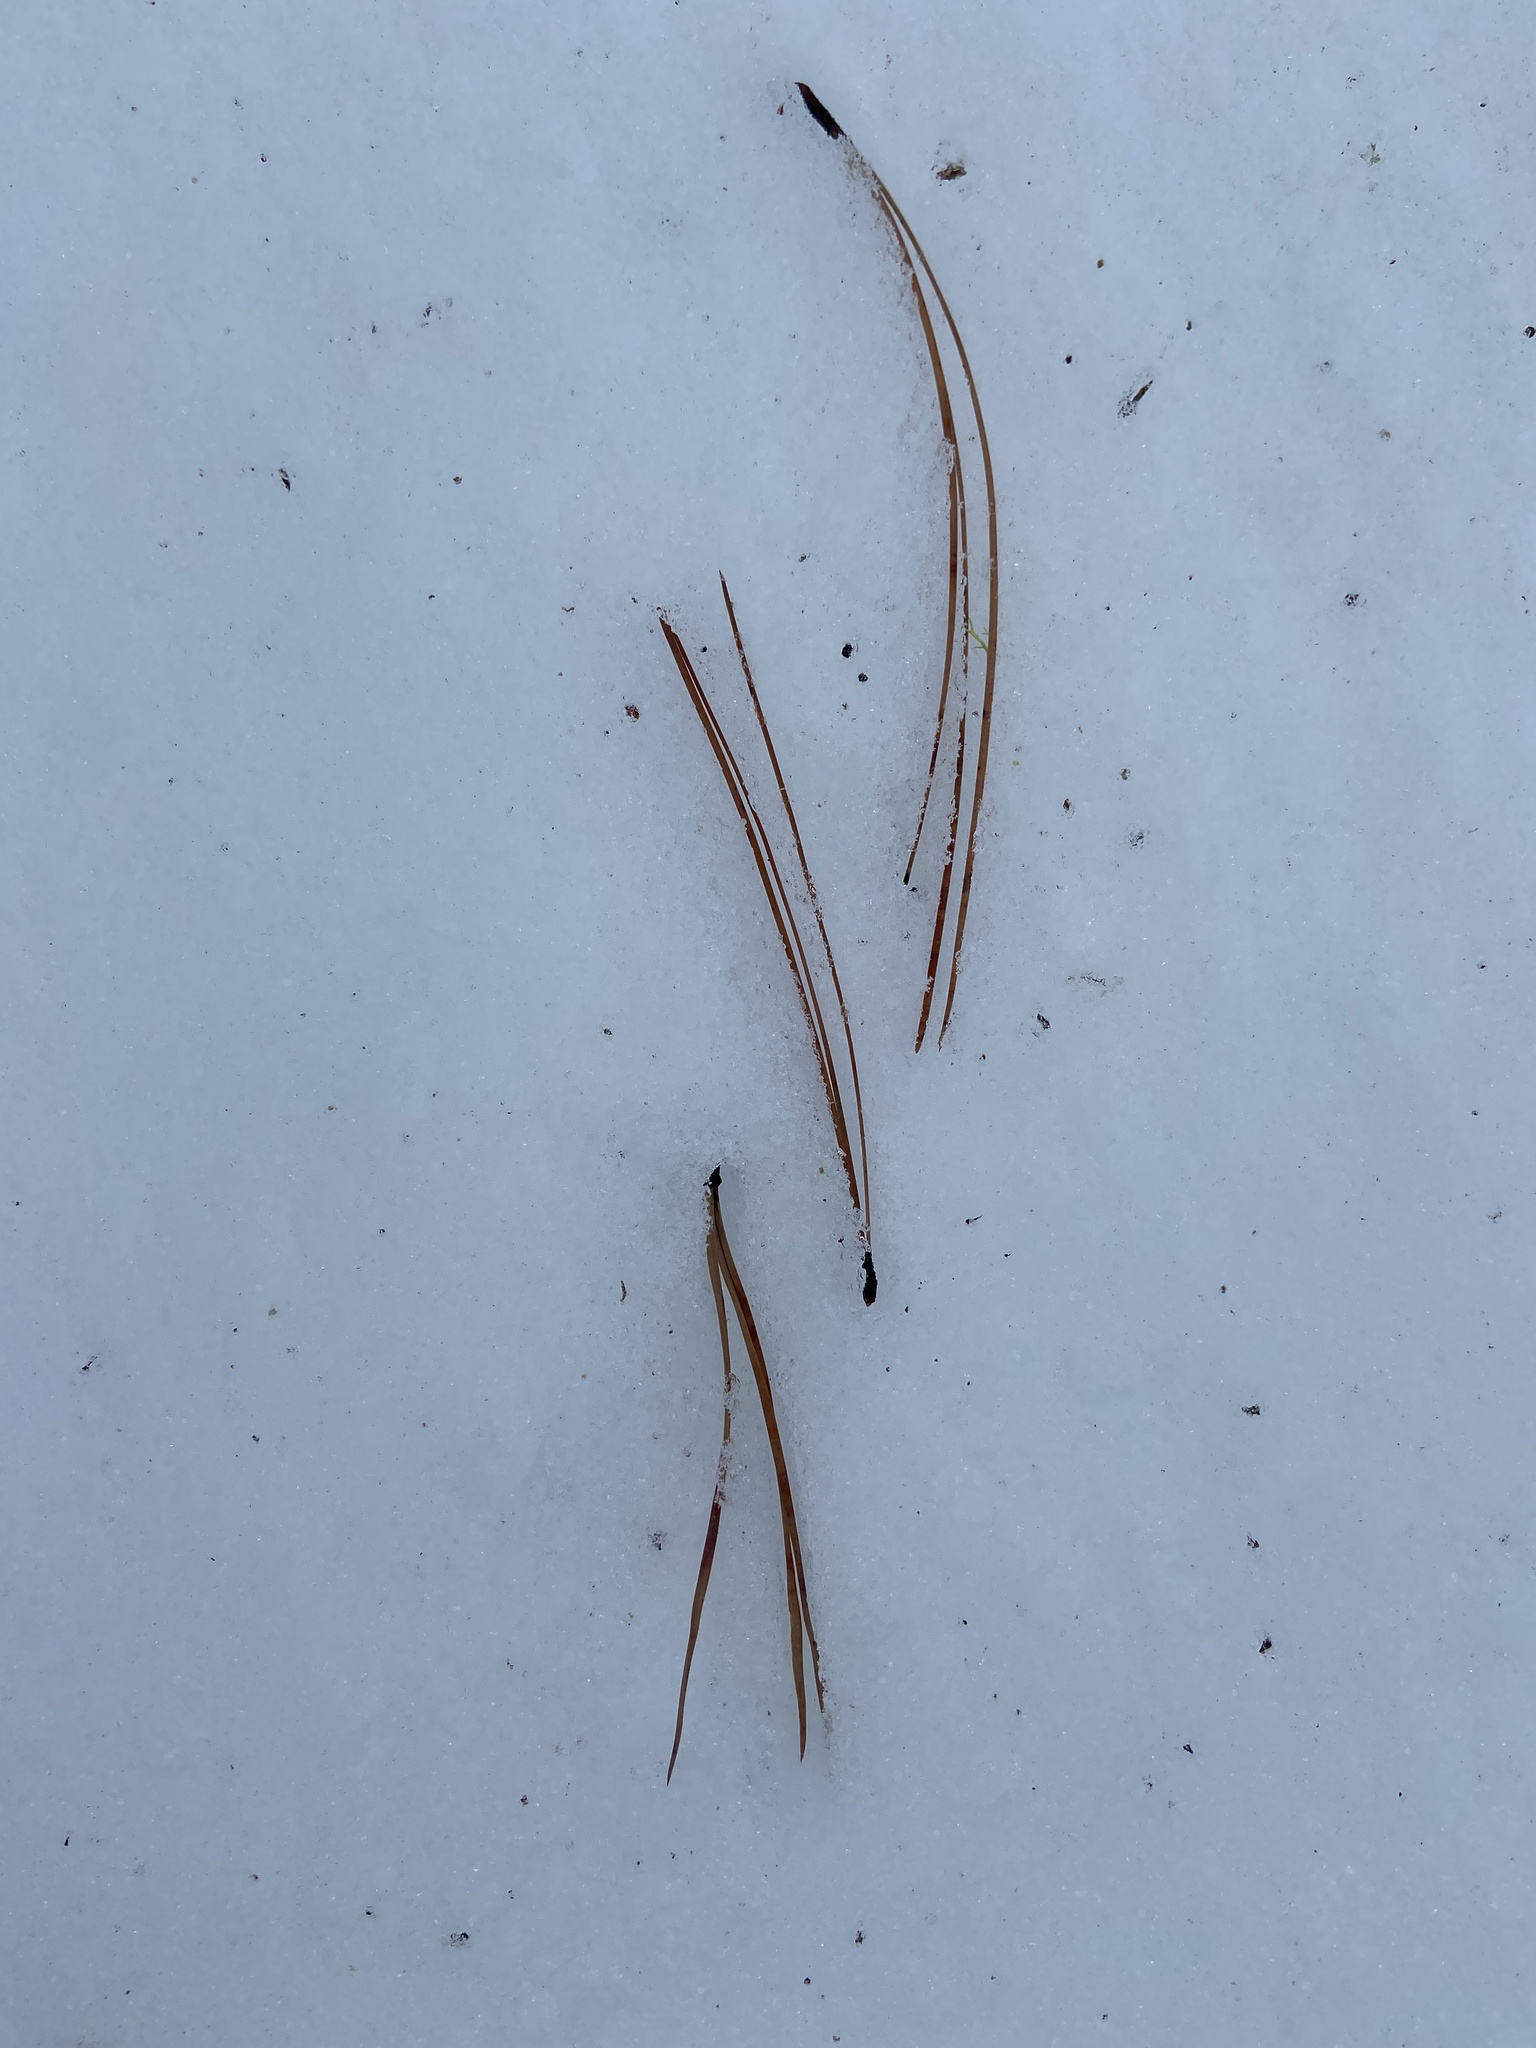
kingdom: Plantae
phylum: Tracheophyta
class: Pinopsida
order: Pinales
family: Pinaceae
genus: Pinus
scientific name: Pinus ponderosa
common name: Western yellow-pine
